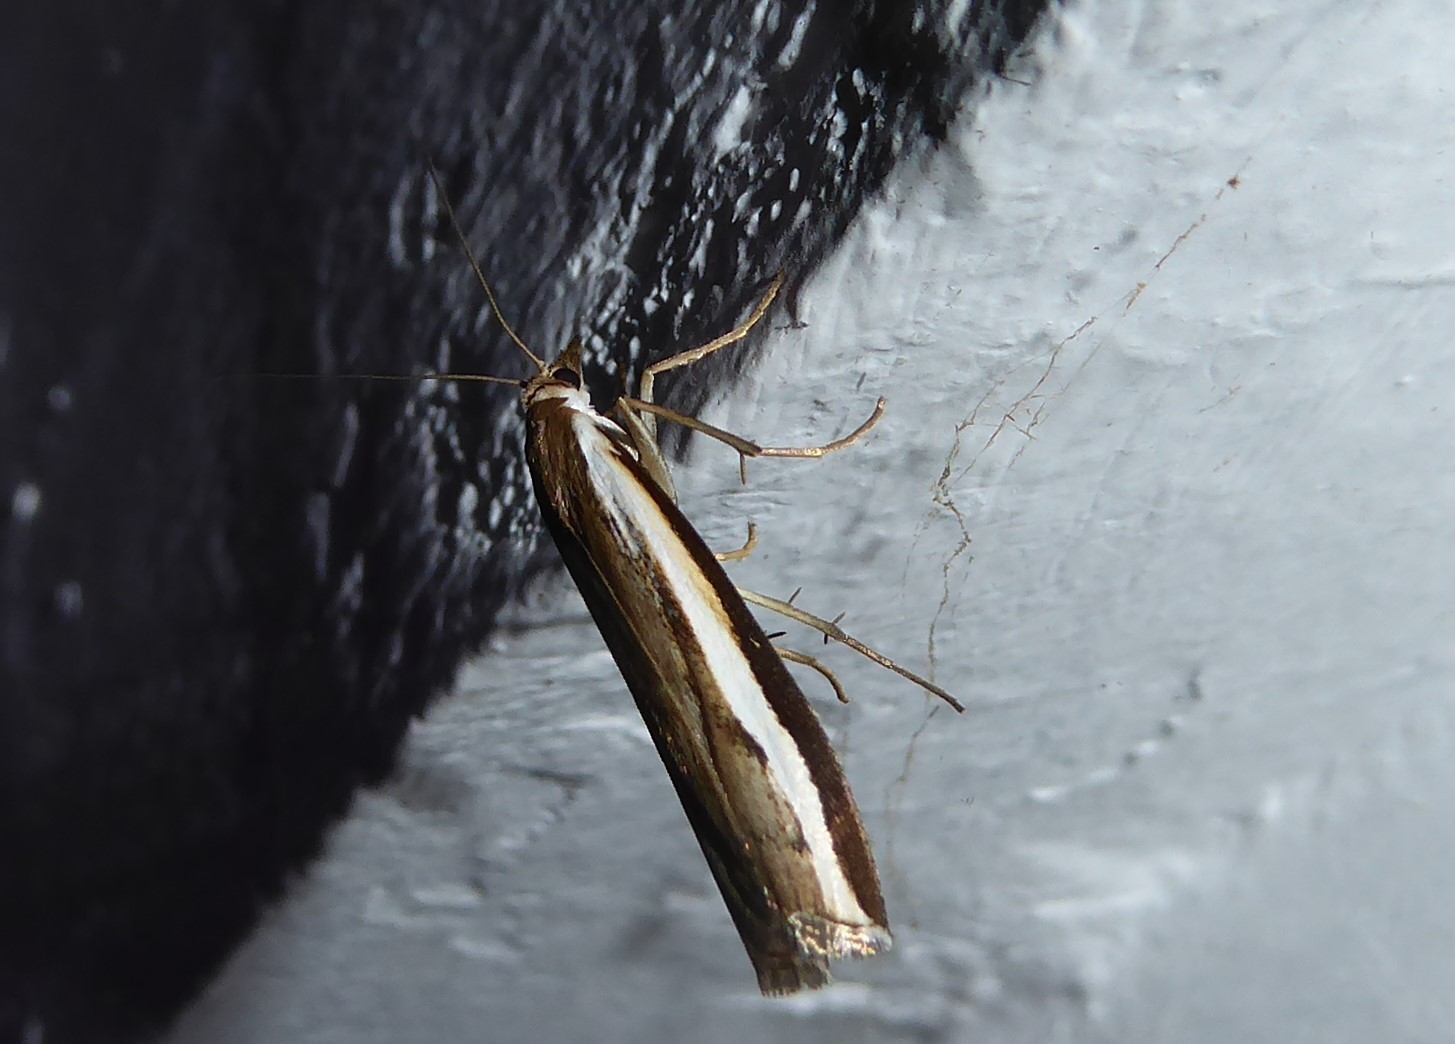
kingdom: Animalia
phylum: Arthropoda
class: Insecta
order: Lepidoptera
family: Crambidae
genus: Orocrambus
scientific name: Orocrambus flexuosellus
